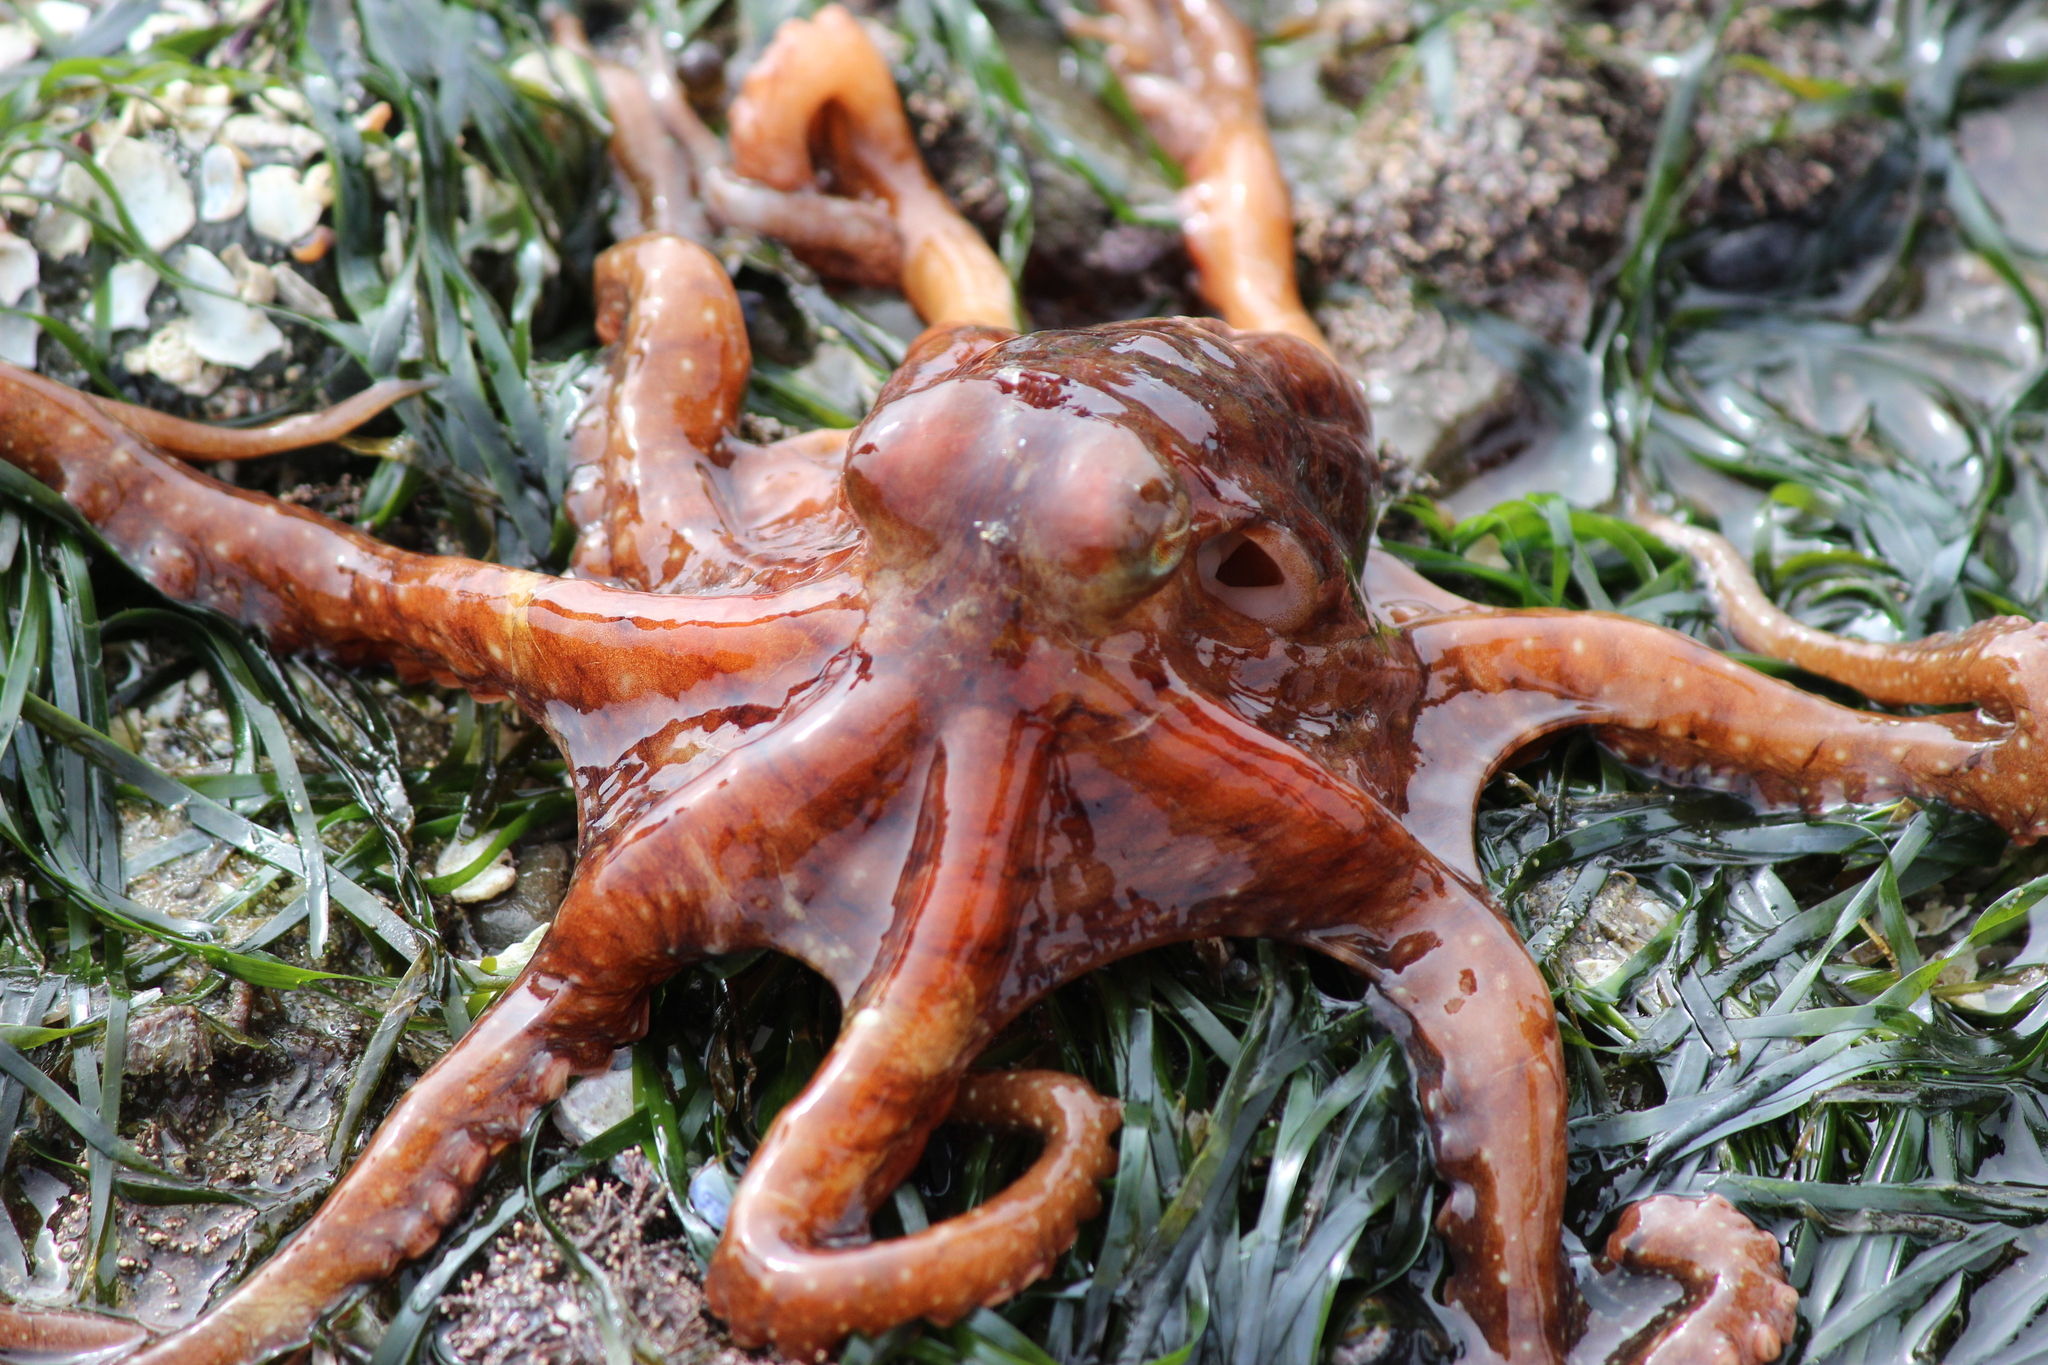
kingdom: Animalia
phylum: Mollusca
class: Cephalopoda
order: Octopoda
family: Octopodidae
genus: Octopus
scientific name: Octopus rubescens
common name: East pacific red octopus
